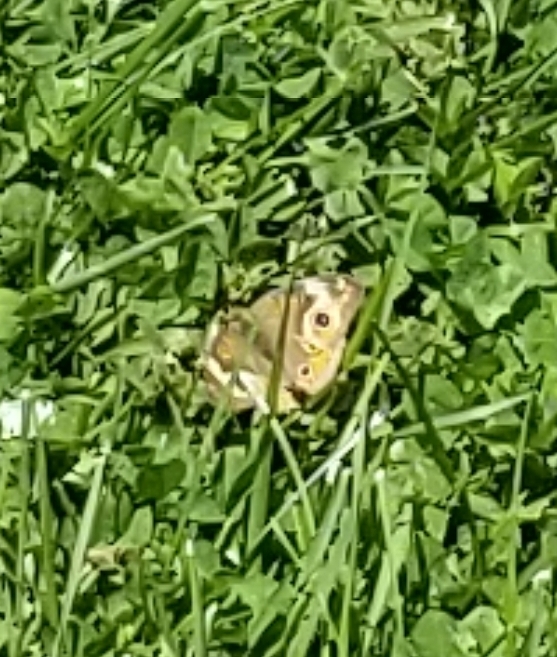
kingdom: Animalia
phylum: Arthropoda
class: Insecta
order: Lepidoptera
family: Nymphalidae
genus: Junonia
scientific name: Junonia coenia
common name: Common buckeye
